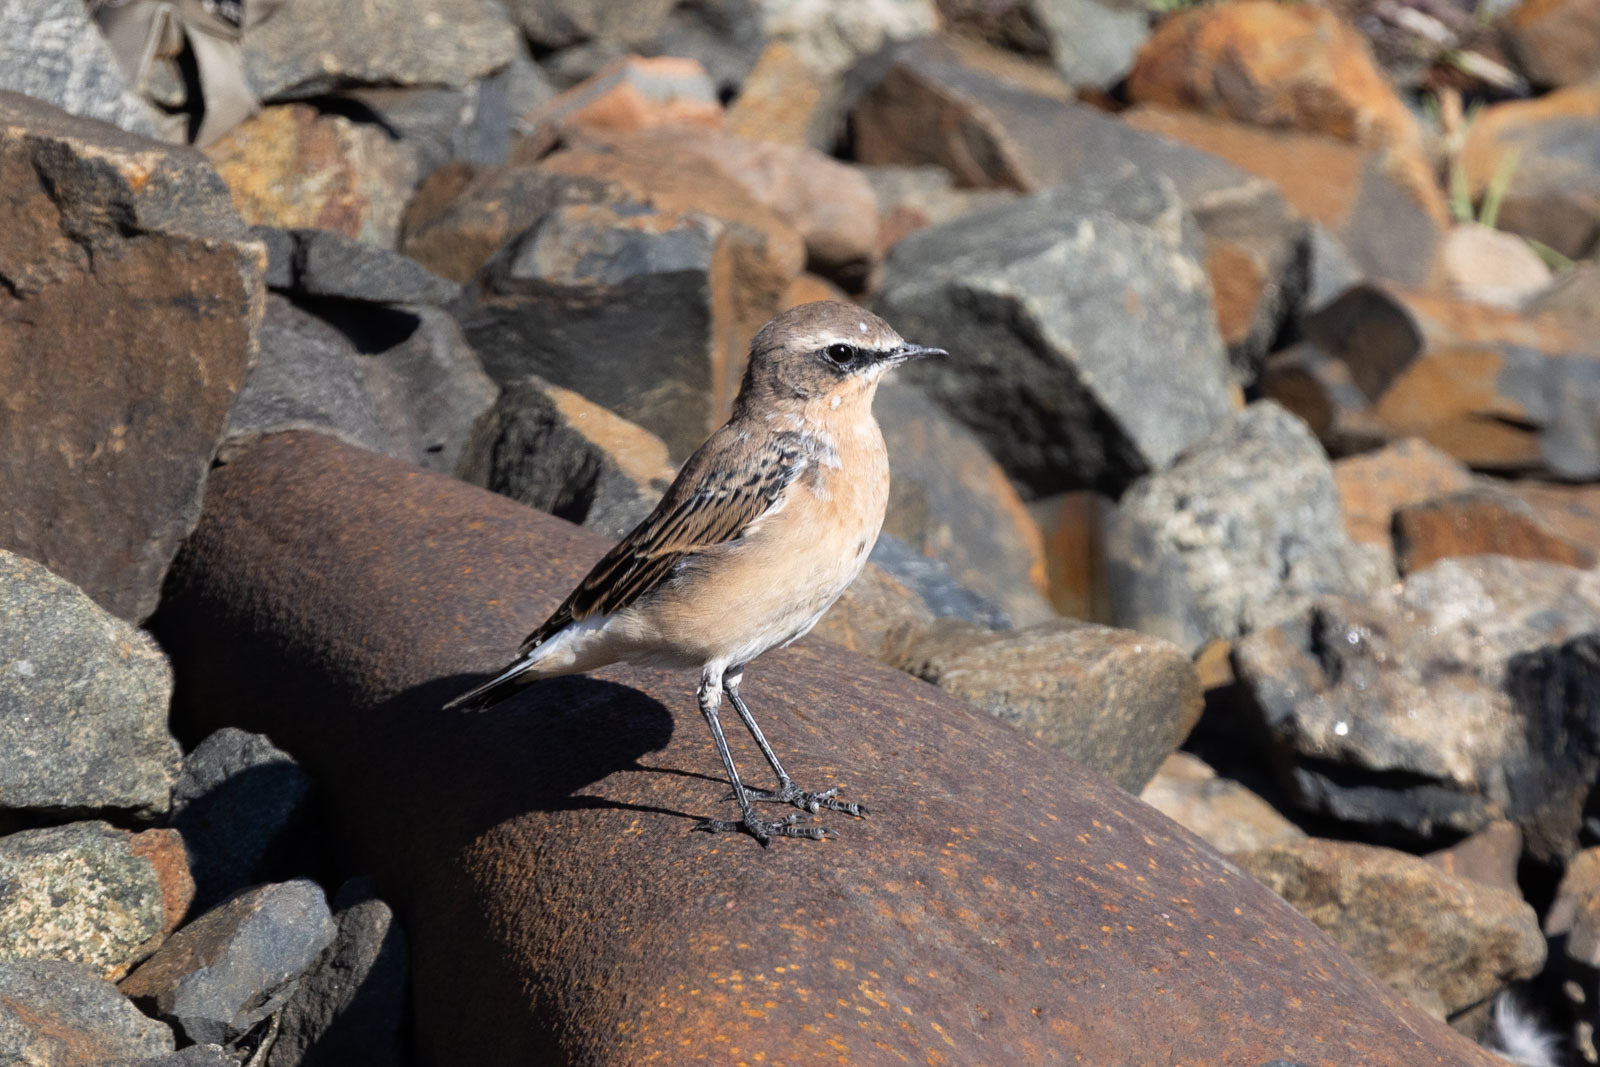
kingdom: Animalia
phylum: Chordata
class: Aves
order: Passeriformes
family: Muscicapidae
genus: Oenanthe
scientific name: Oenanthe oenanthe
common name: Northern wheatear
